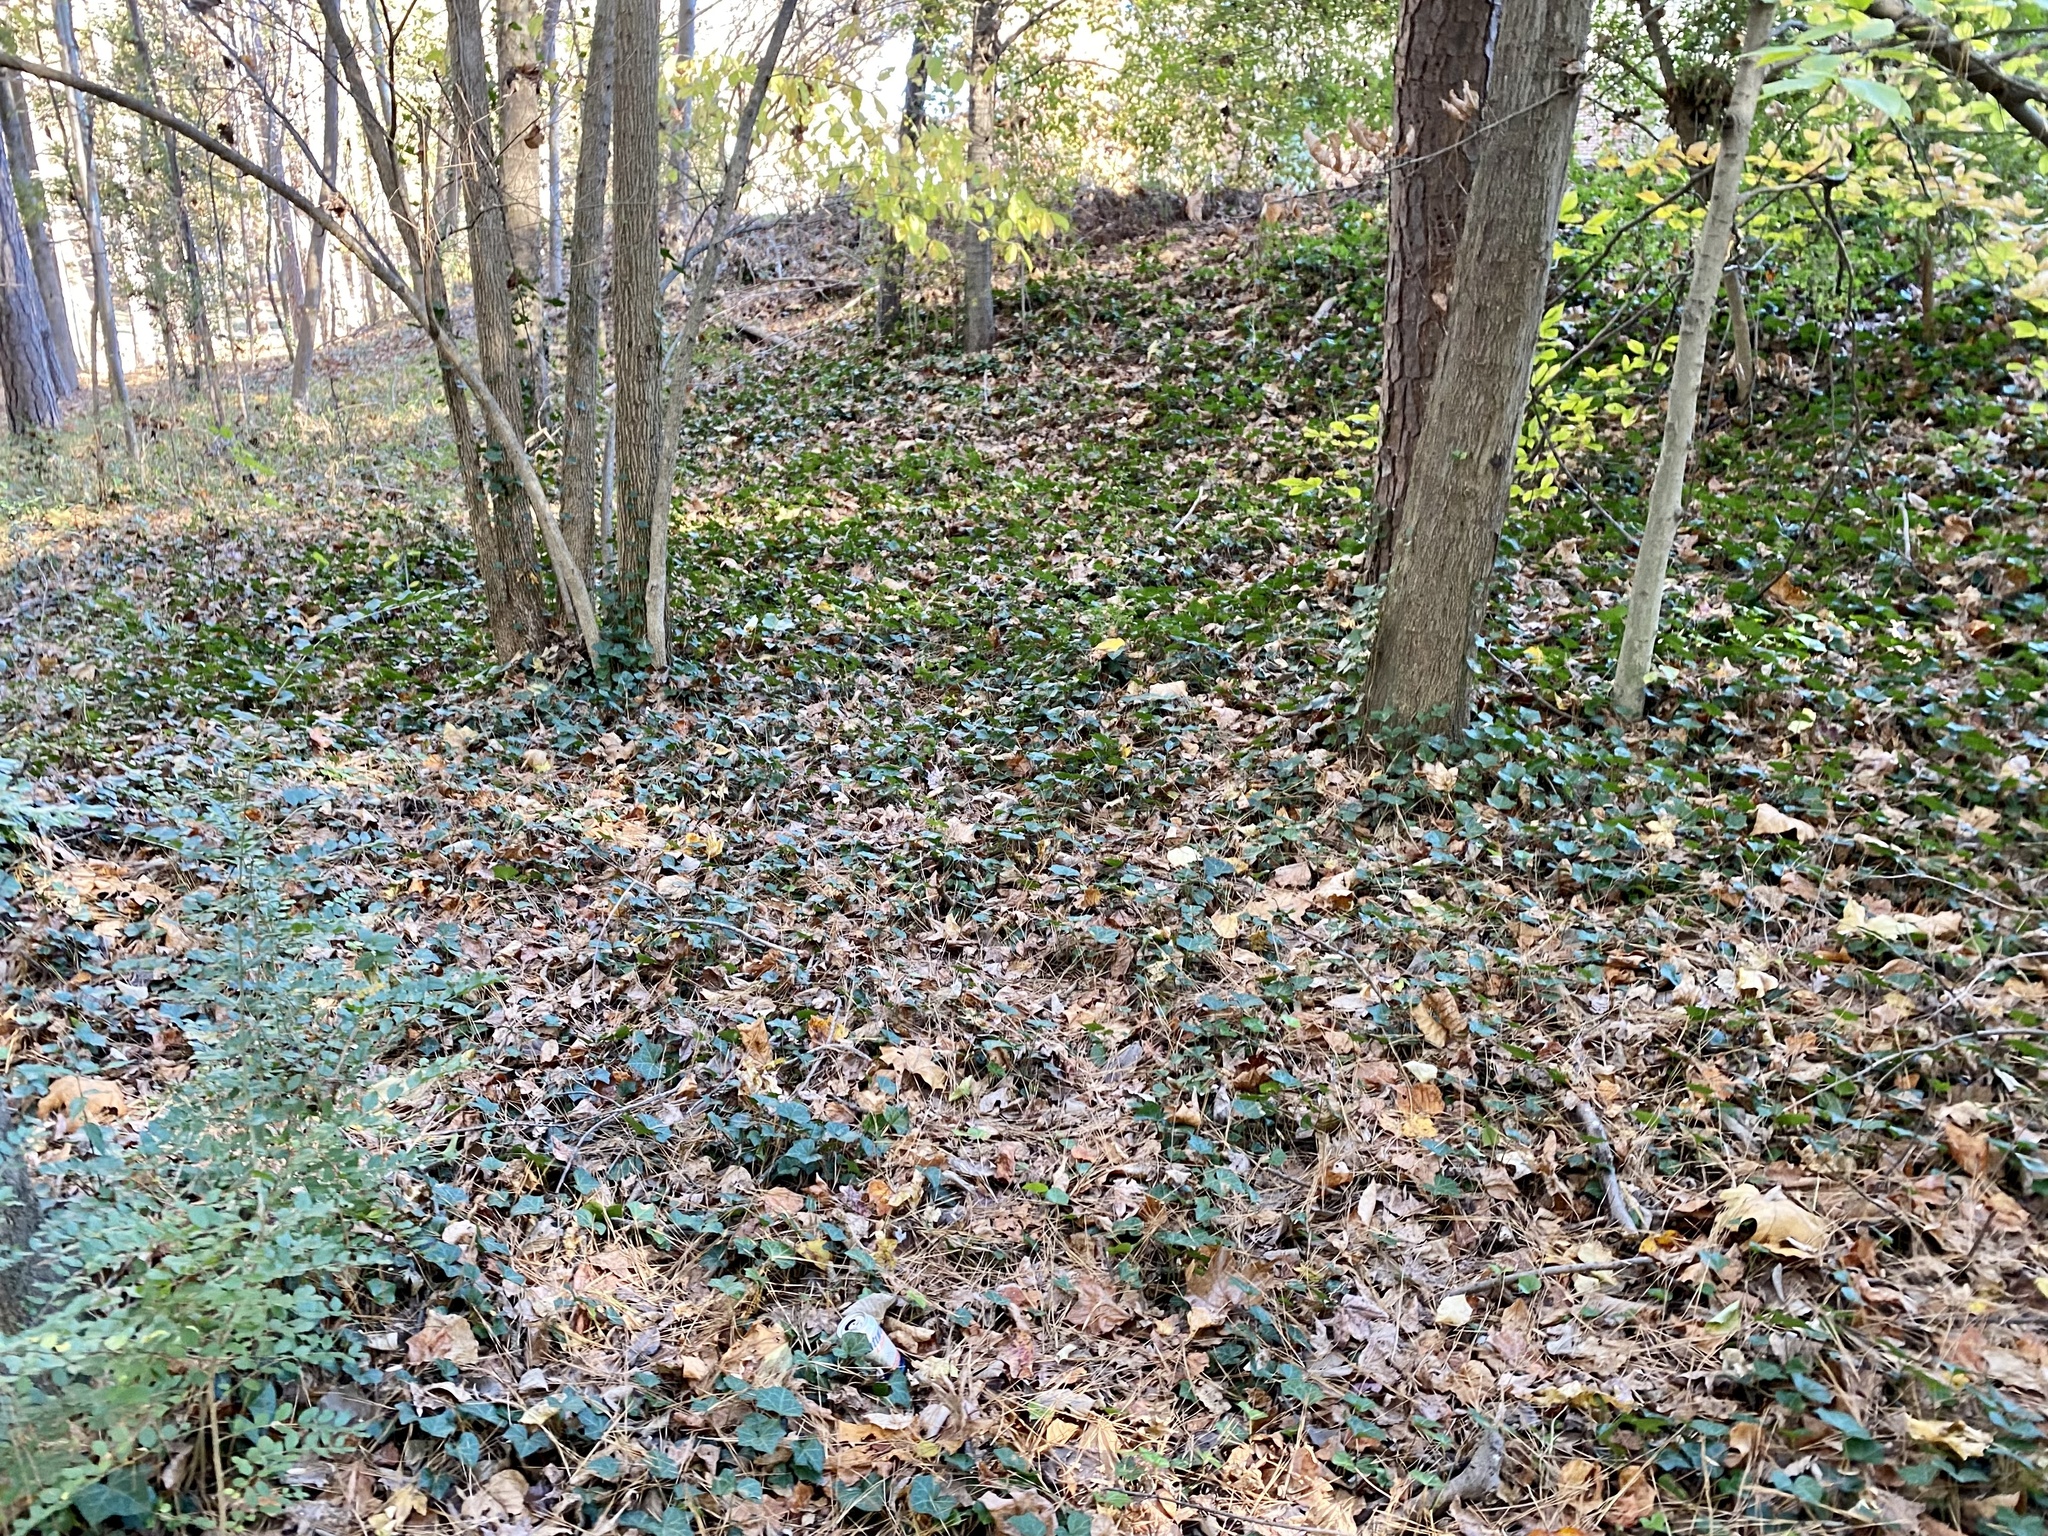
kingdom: Plantae
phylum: Tracheophyta
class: Magnoliopsida
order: Apiales
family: Araliaceae
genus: Hedera
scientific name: Hedera helix
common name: Ivy
